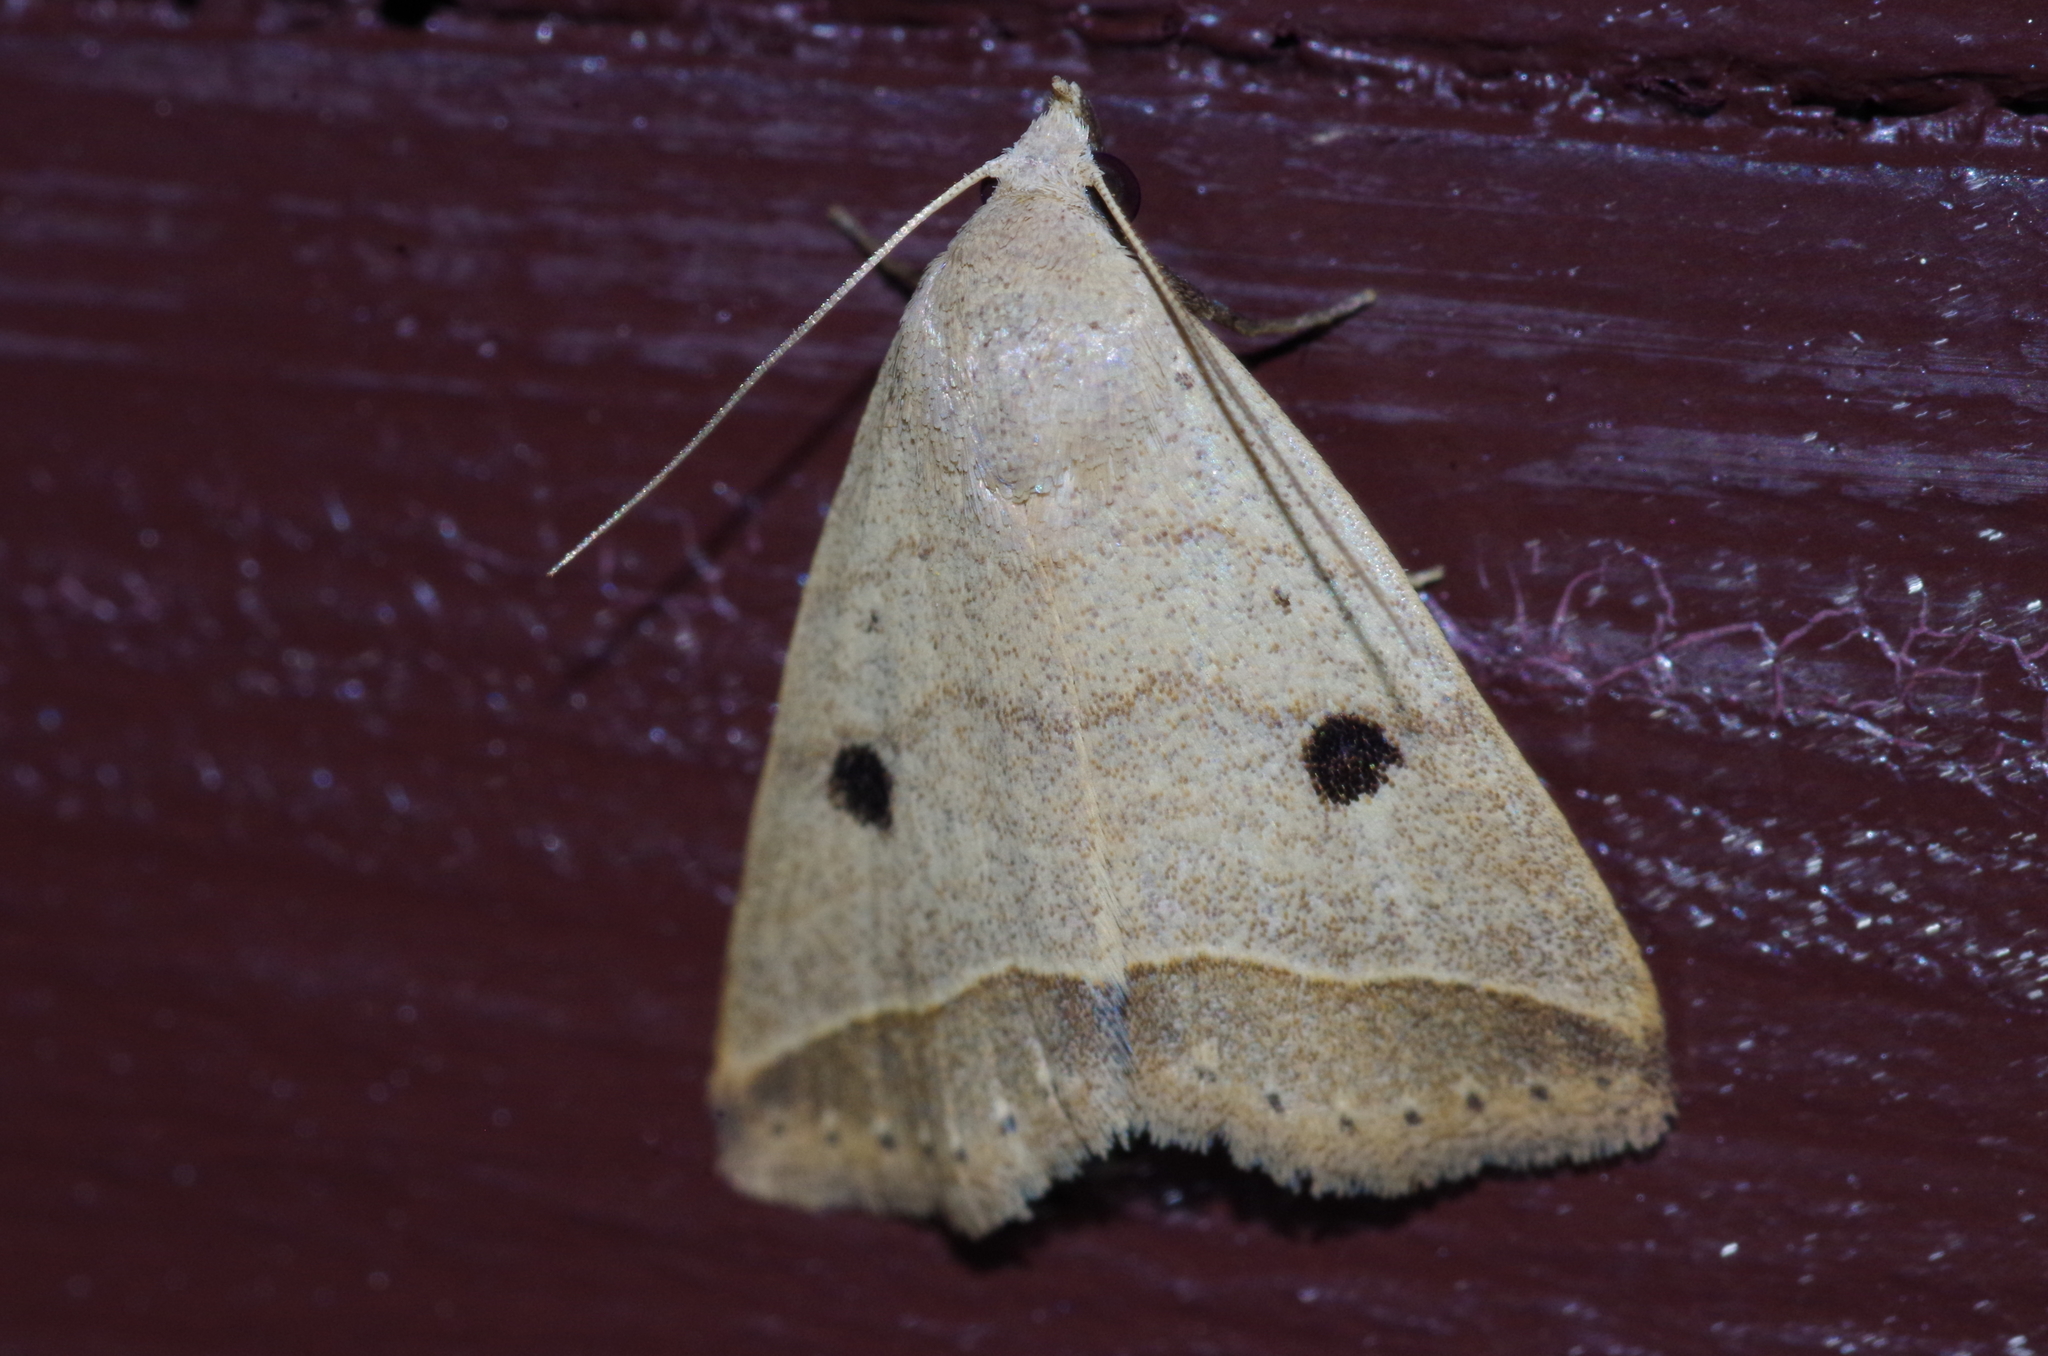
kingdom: Animalia
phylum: Arthropoda
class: Insecta
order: Lepidoptera
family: Erebidae
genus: Bocula
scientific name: Bocula caradrinoides
